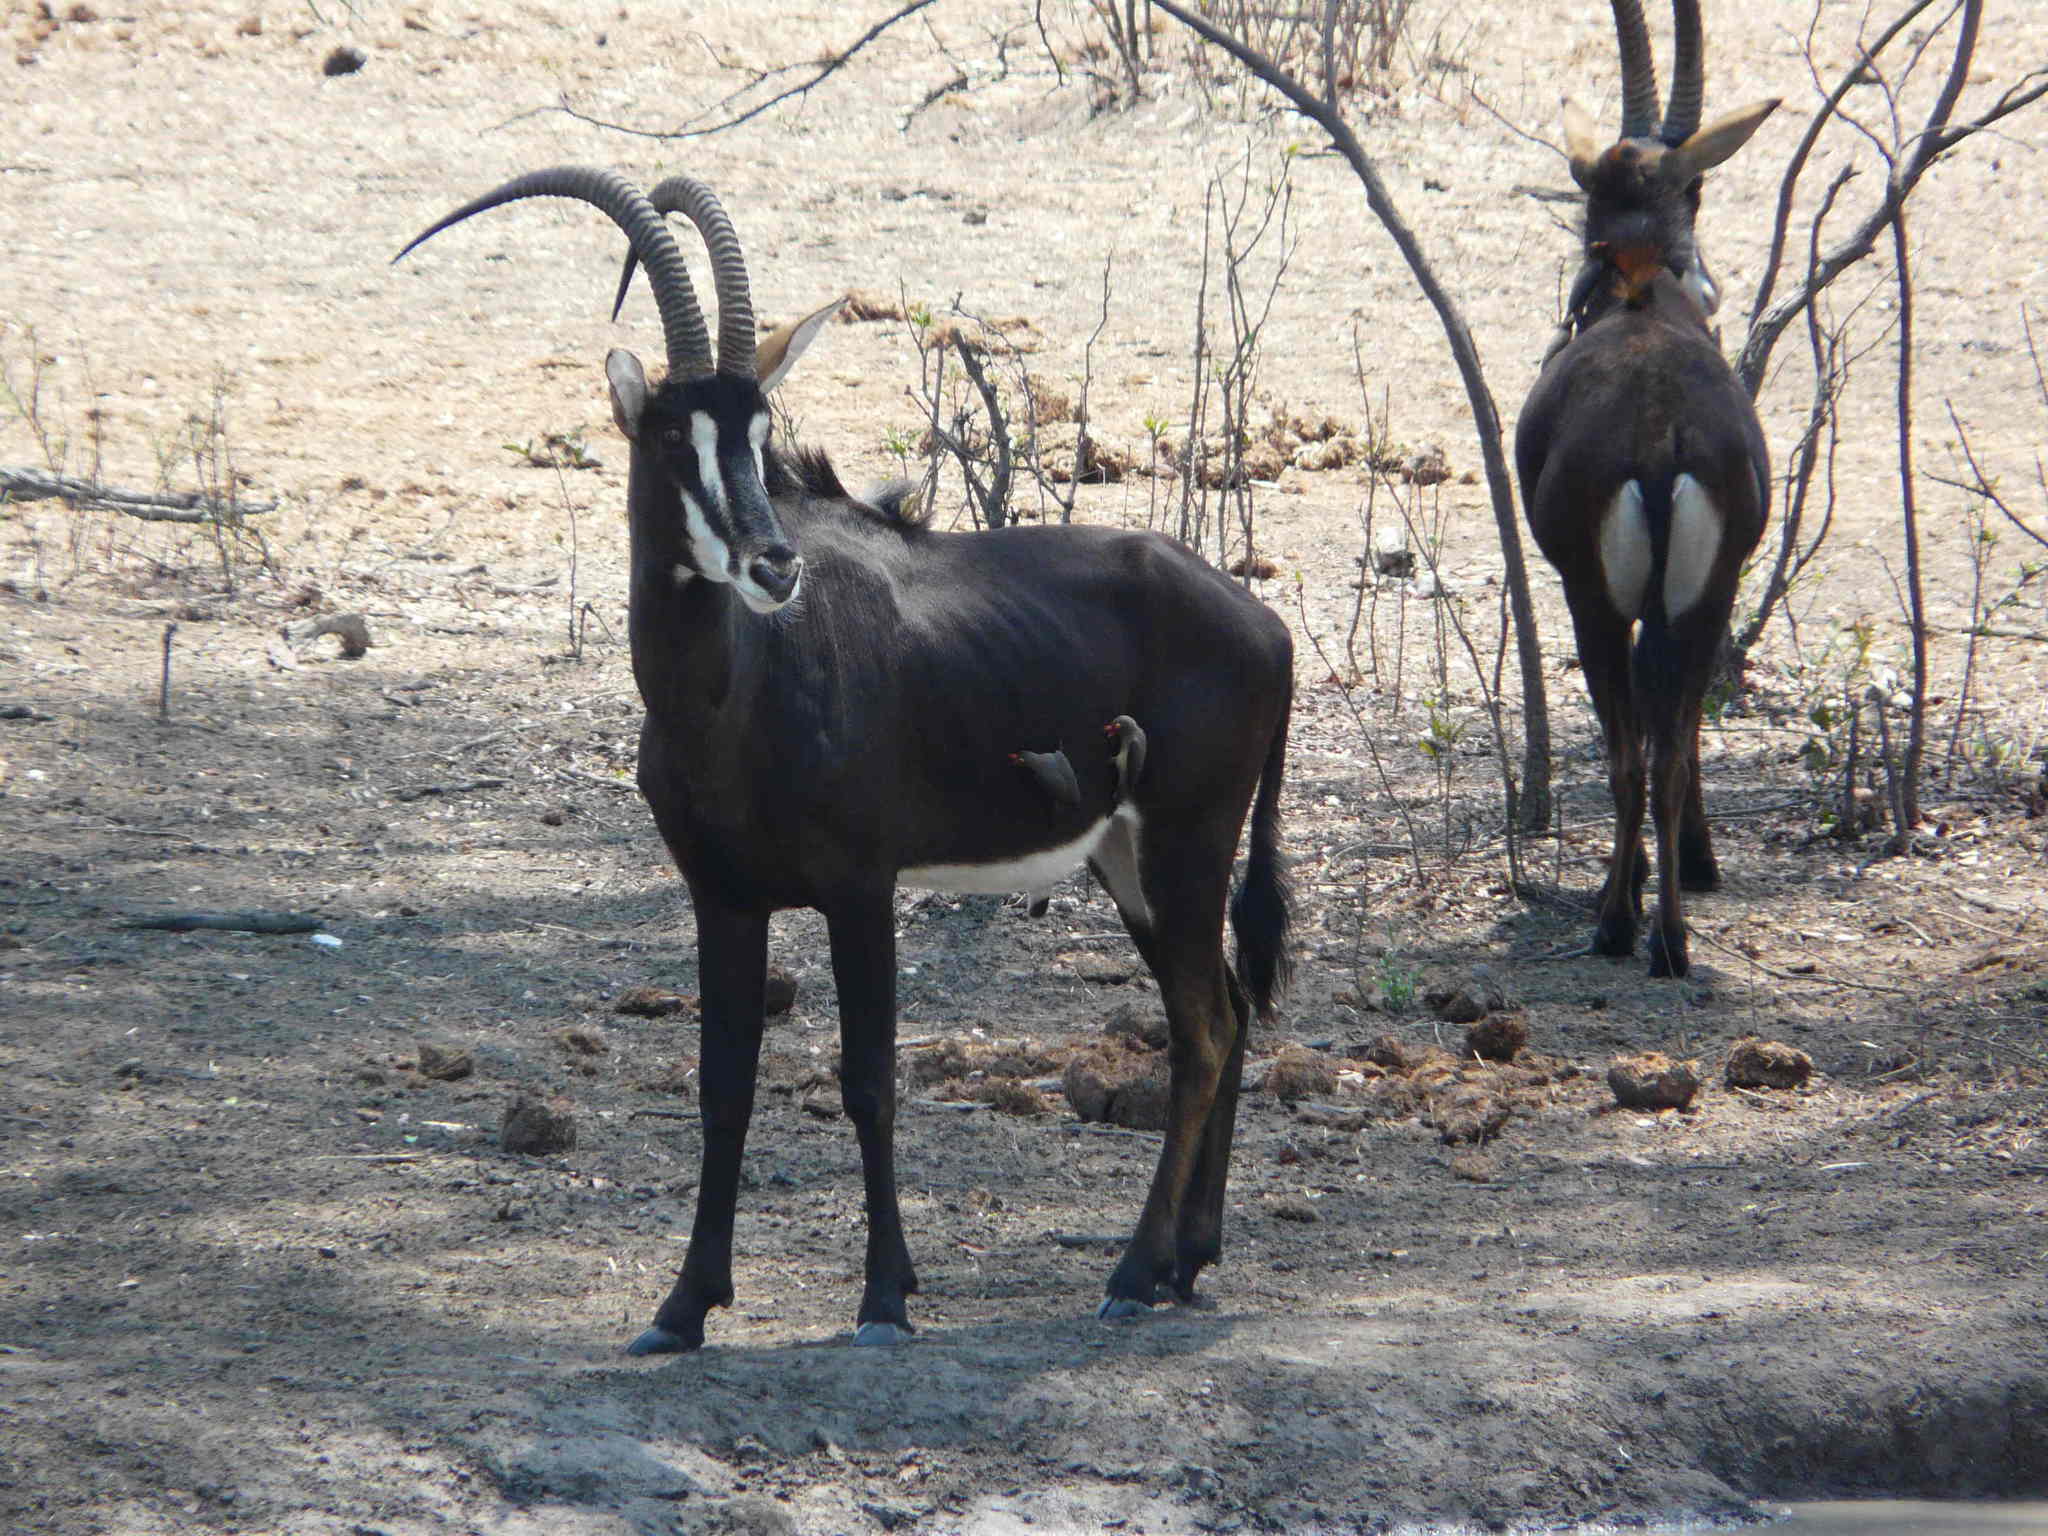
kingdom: Animalia
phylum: Chordata
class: Mammalia
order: Artiodactyla
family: Bovidae
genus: Hippotragus
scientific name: Hippotragus niger
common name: Sable antelope
